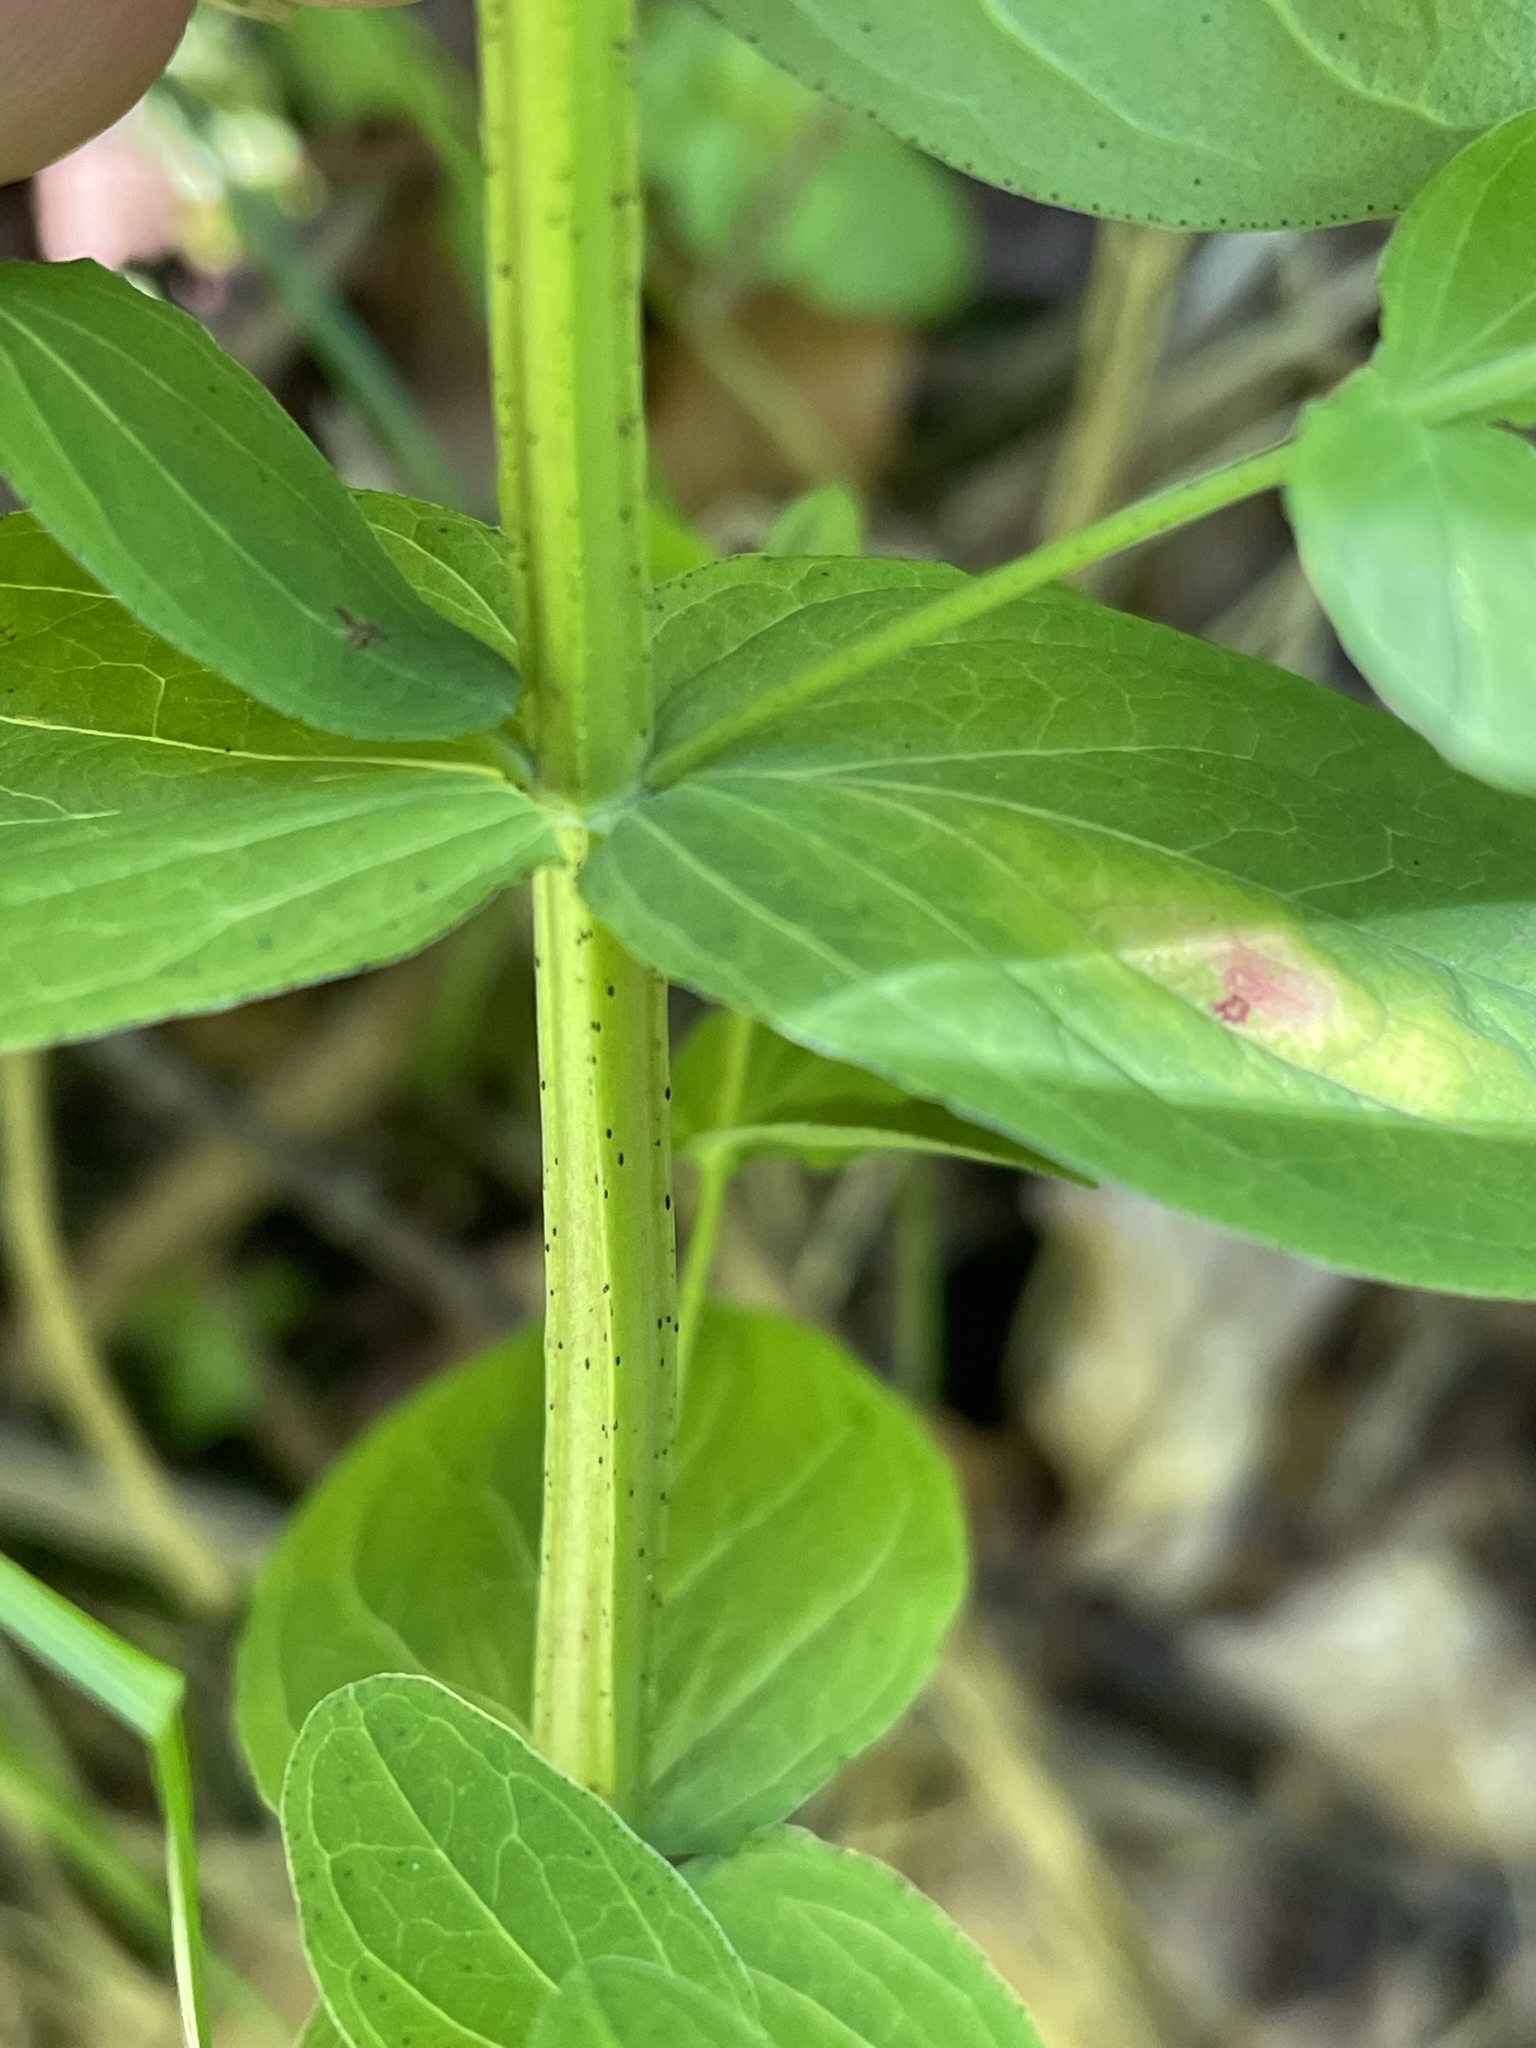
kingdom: Plantae
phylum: Tracheophyta
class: Magnoliopsida
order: Malpighiales
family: Hypericaceae
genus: Hypericum
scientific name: Hypericum tetrapterum
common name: Square-stalked st. john's-wort
